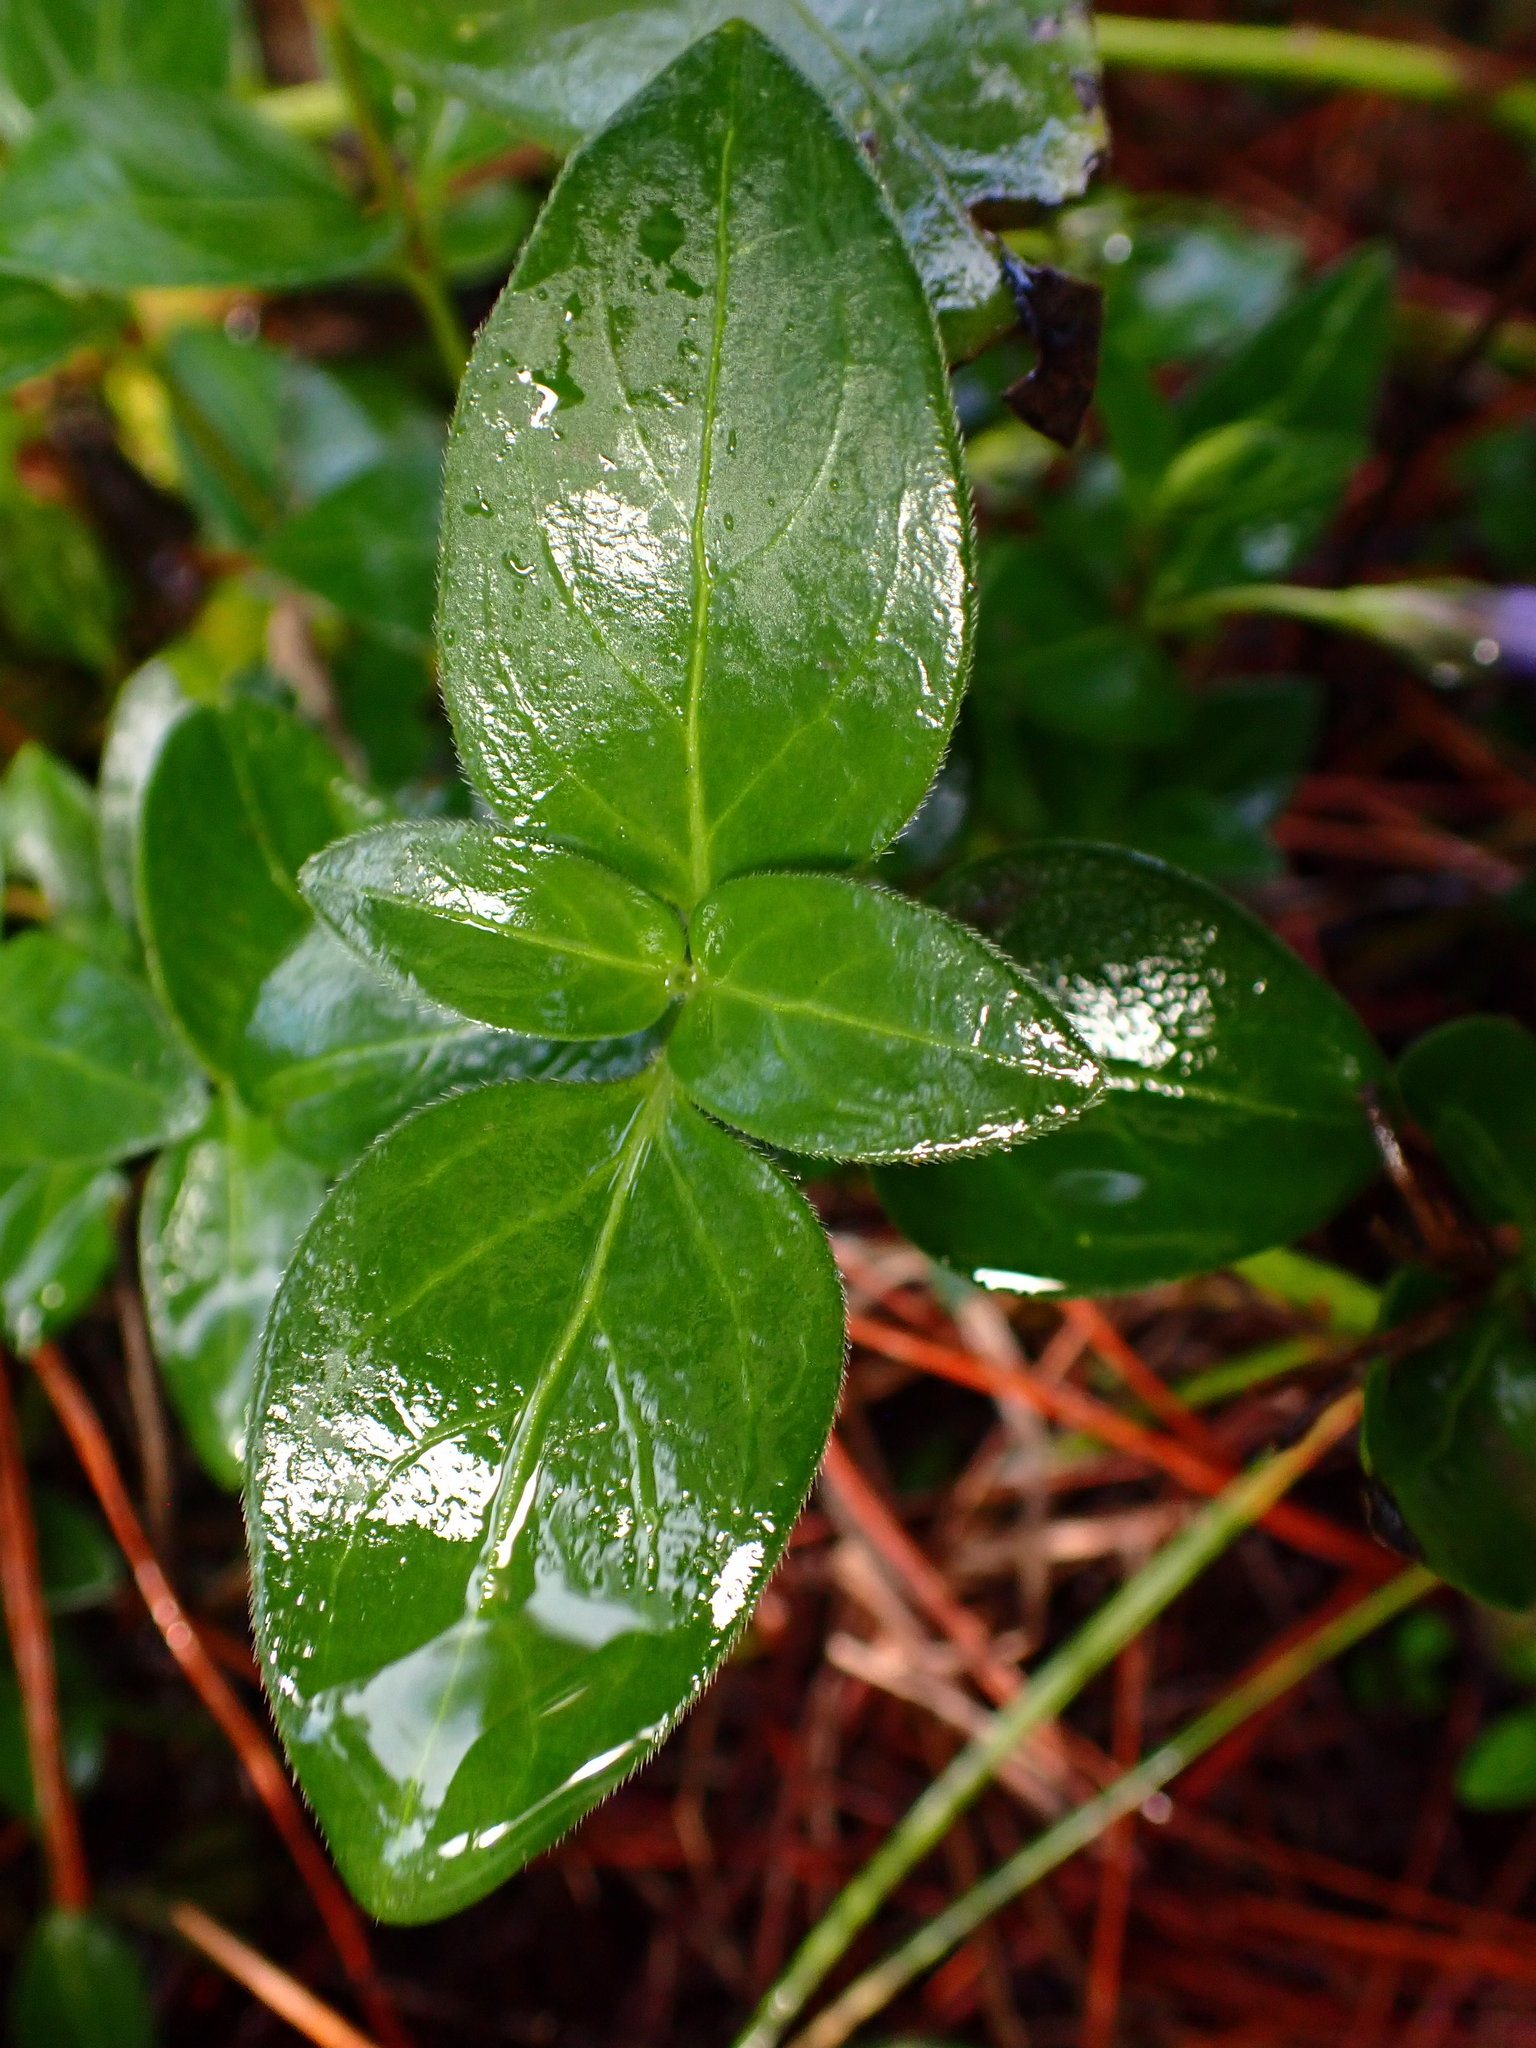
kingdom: Plantae
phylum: Tracheophyta
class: Magnoliopsida
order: Gentianales
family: Apocynaceae
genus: Vinca
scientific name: Vinca major
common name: Greater periwinkle
